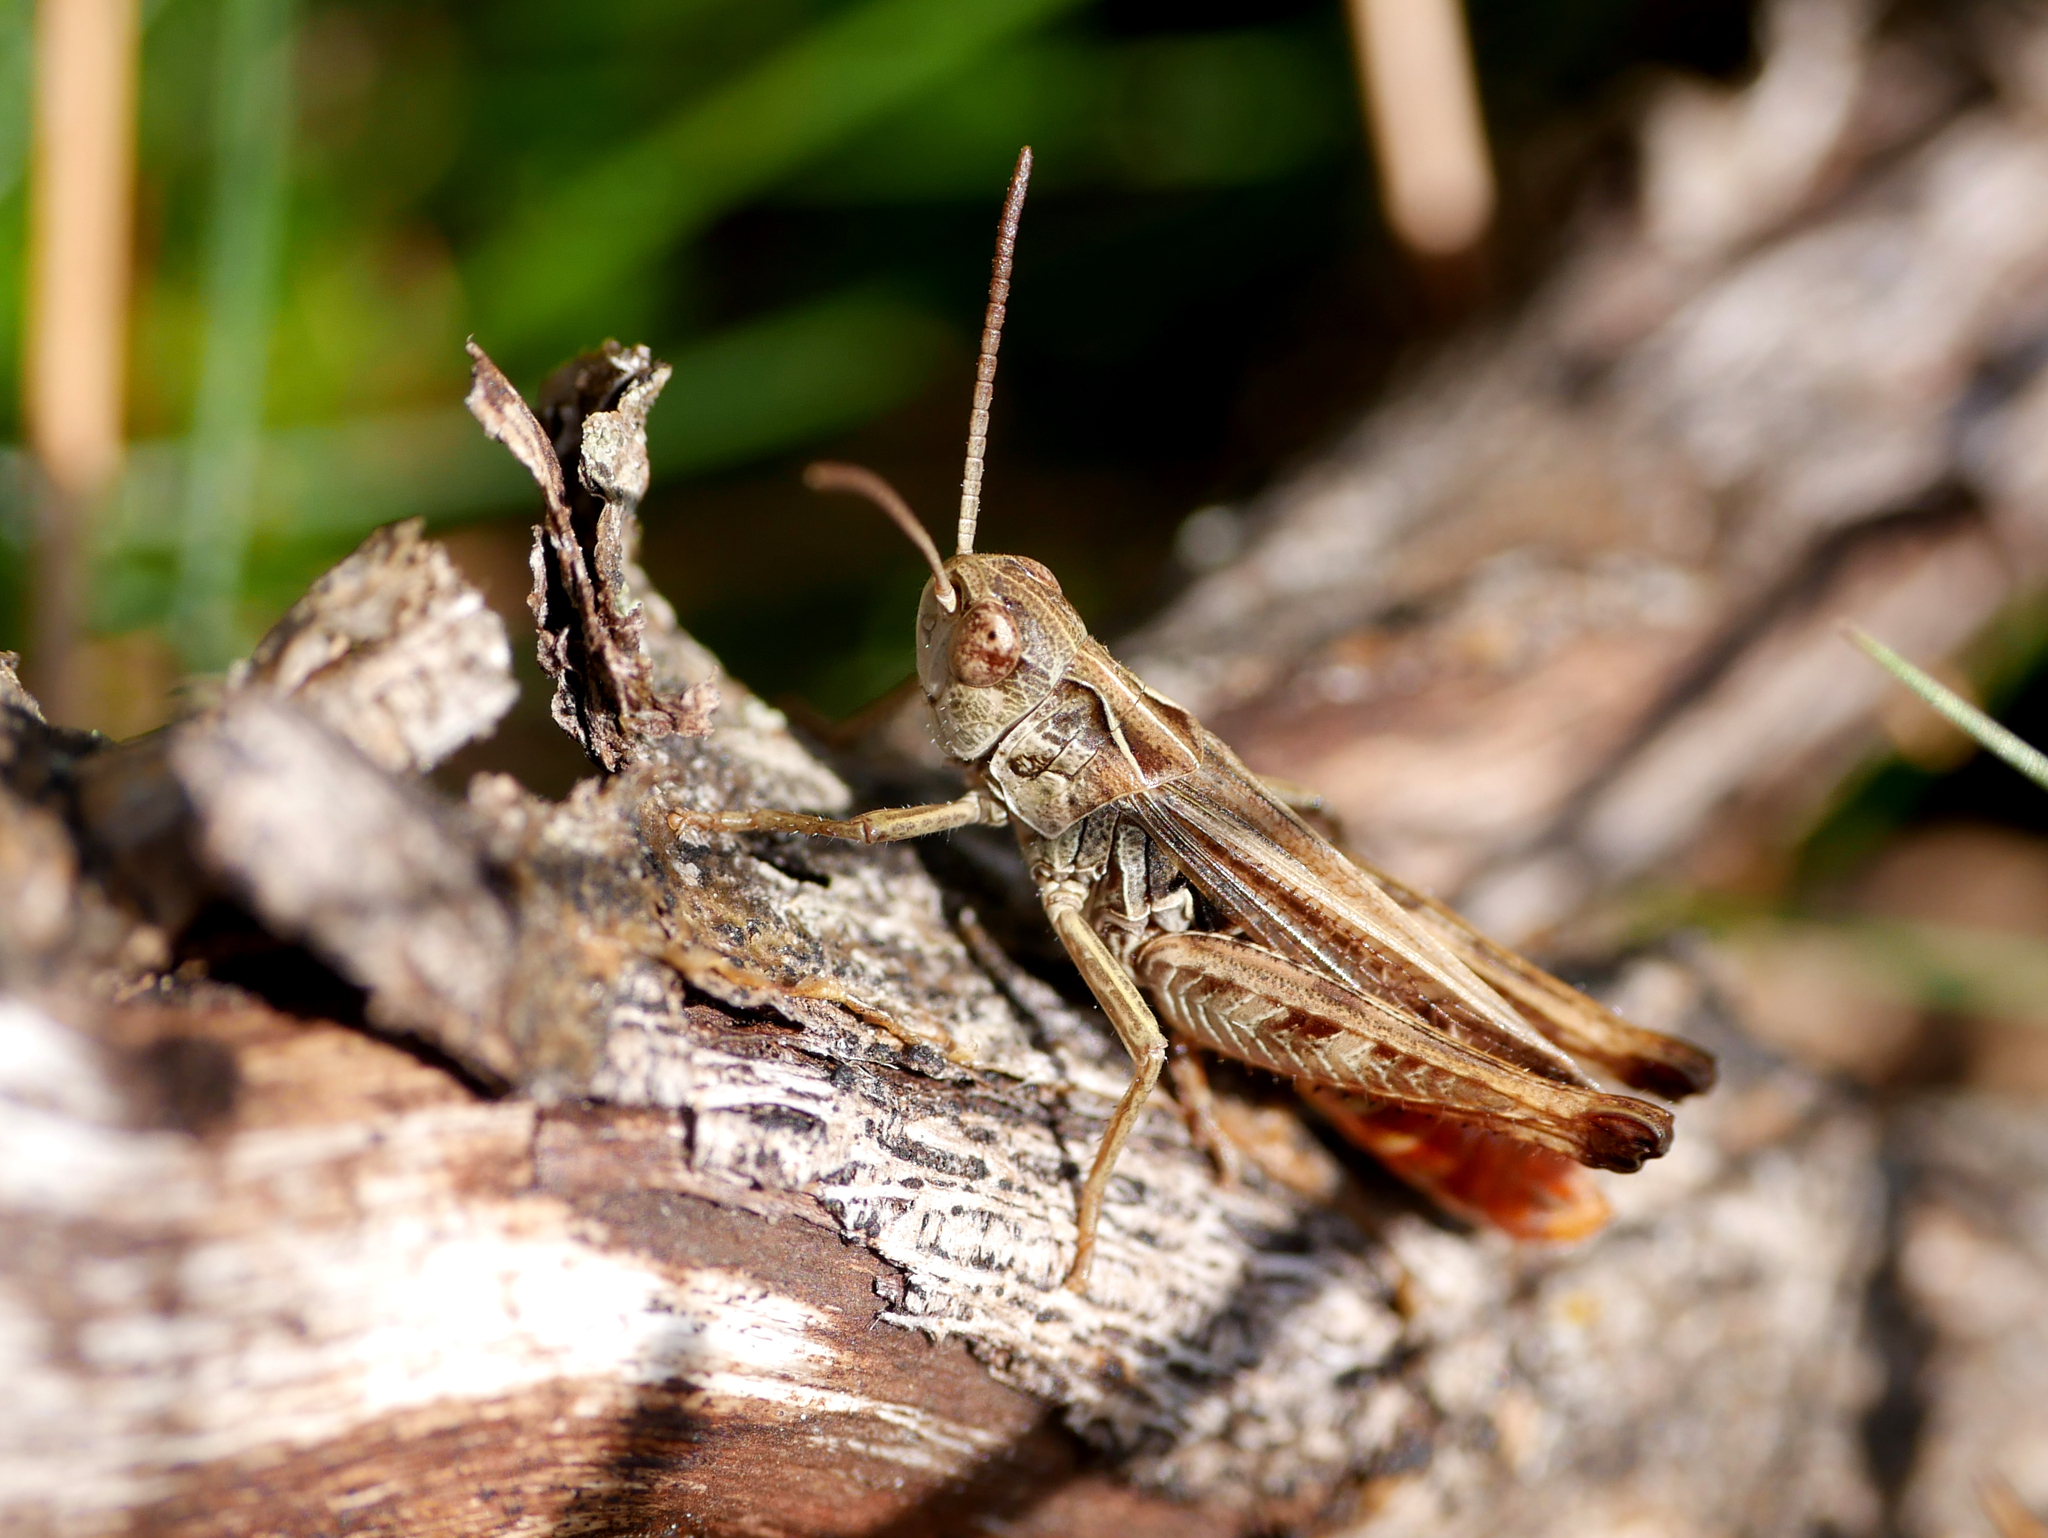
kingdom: Animalia
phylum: Arthropoda
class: Insecta
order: Orthoptera
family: Acrididae
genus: Omocestus
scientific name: Omocestus haemorrhoidalis
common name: Orange-tipped grasshopper
